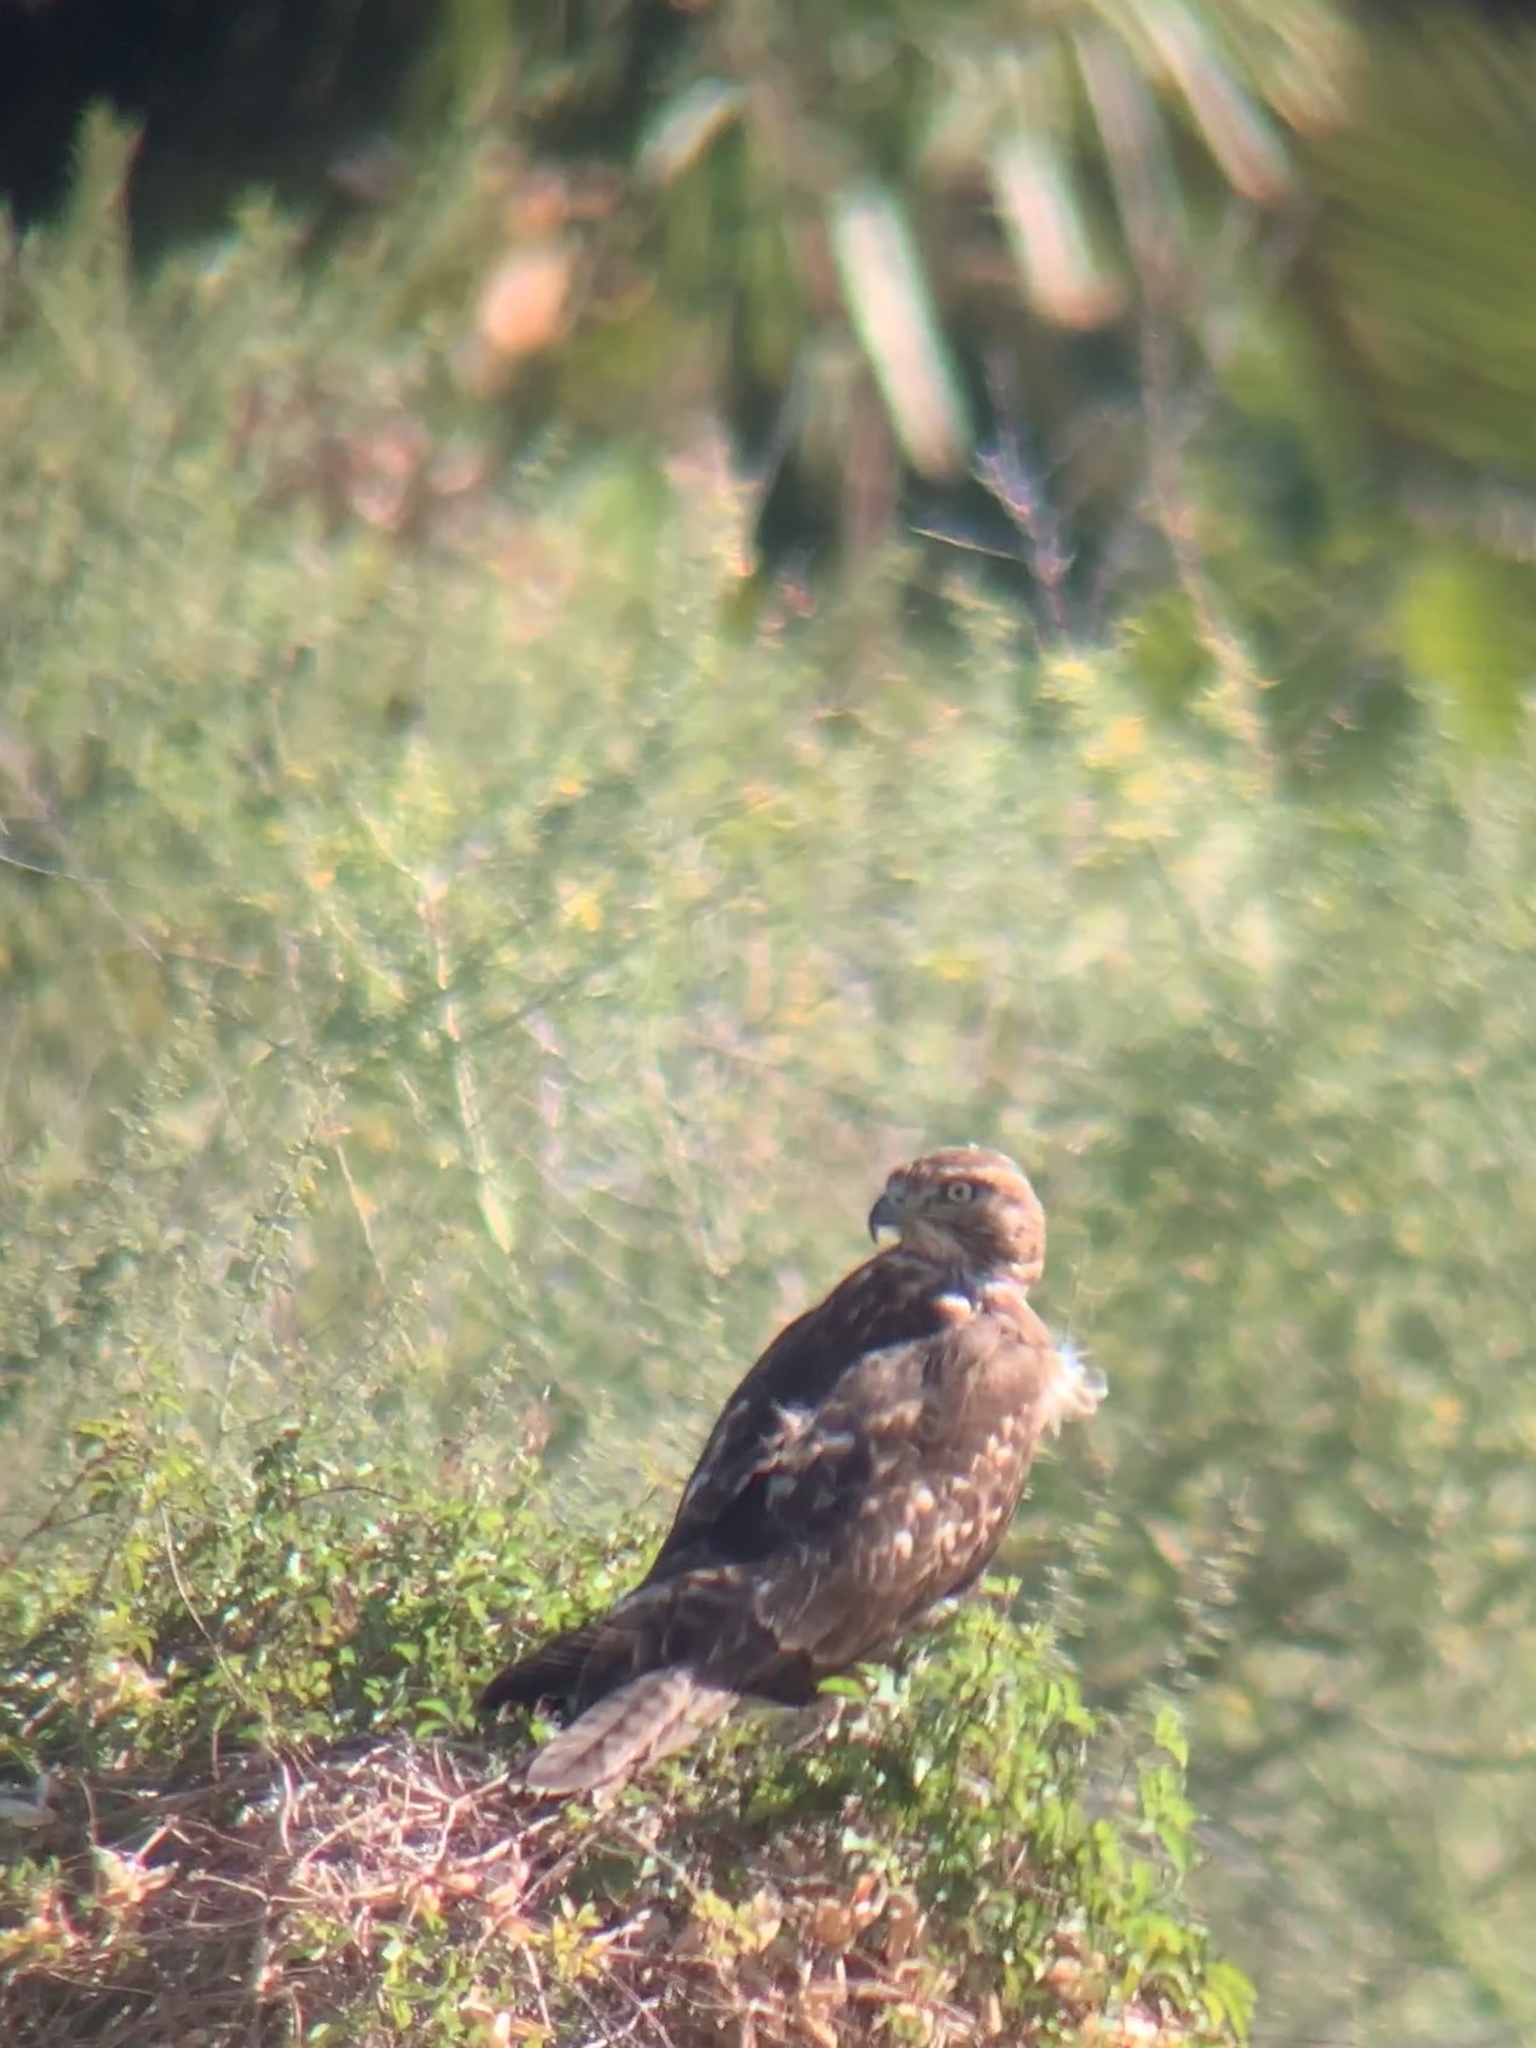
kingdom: Animalia
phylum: Chordata
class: Aves
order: Accipitriformes
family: Accipitridae
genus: Buteo
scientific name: Buteo jamaicensis
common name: Red-tailed hawk
